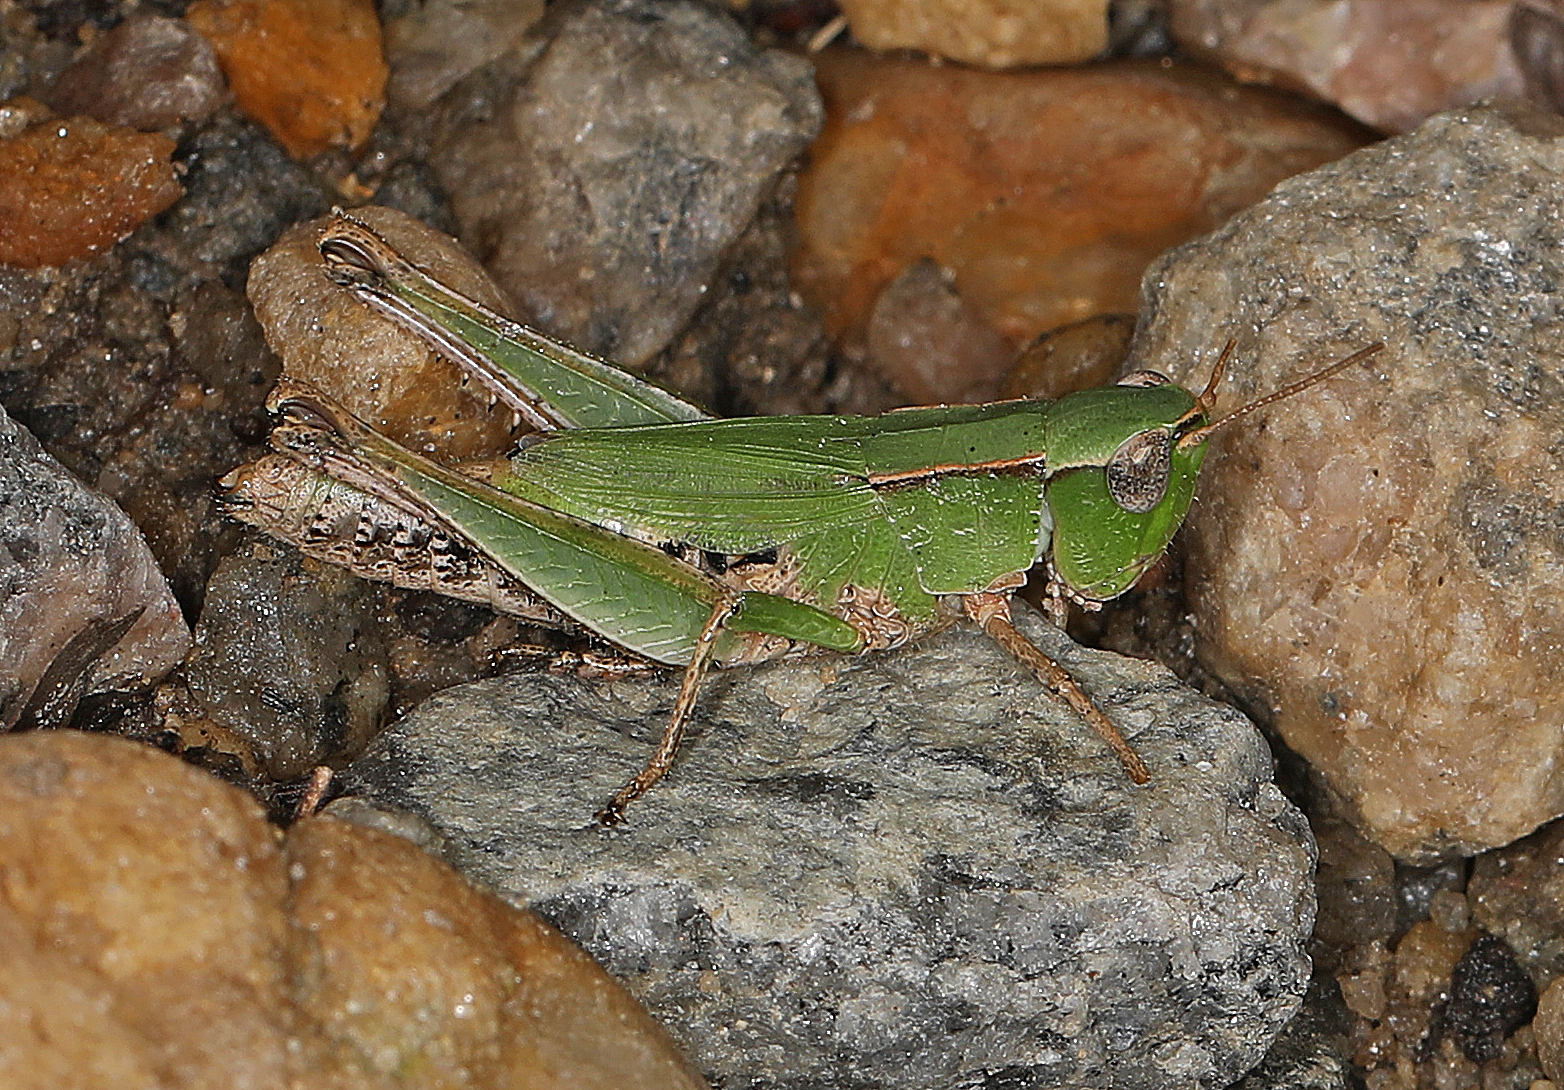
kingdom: Animalia
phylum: Arthropoda
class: Insecta
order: Orthoptera
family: Acrididae
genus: Dichromorpha
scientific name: Dichromorpha viridis
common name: Short-winged green grasshopper
